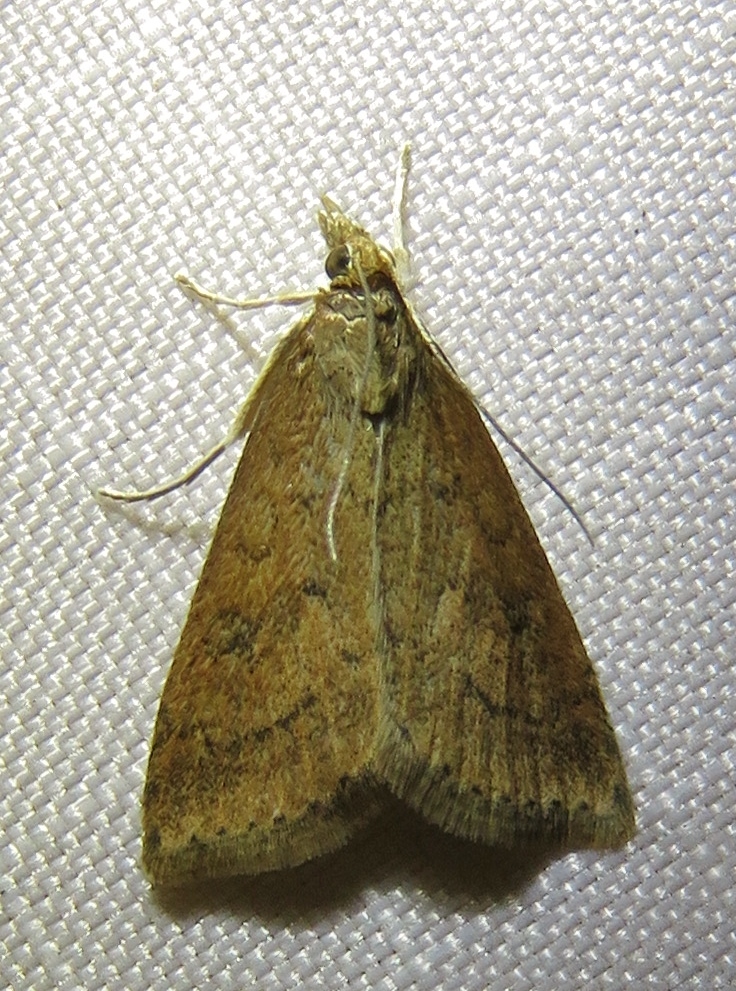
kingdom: Animalia
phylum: Arthropoda
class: Insecta
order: Lepidoptera
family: Crambidae
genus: Udea
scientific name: Udea rubigalis
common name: Celery leaftier moth
